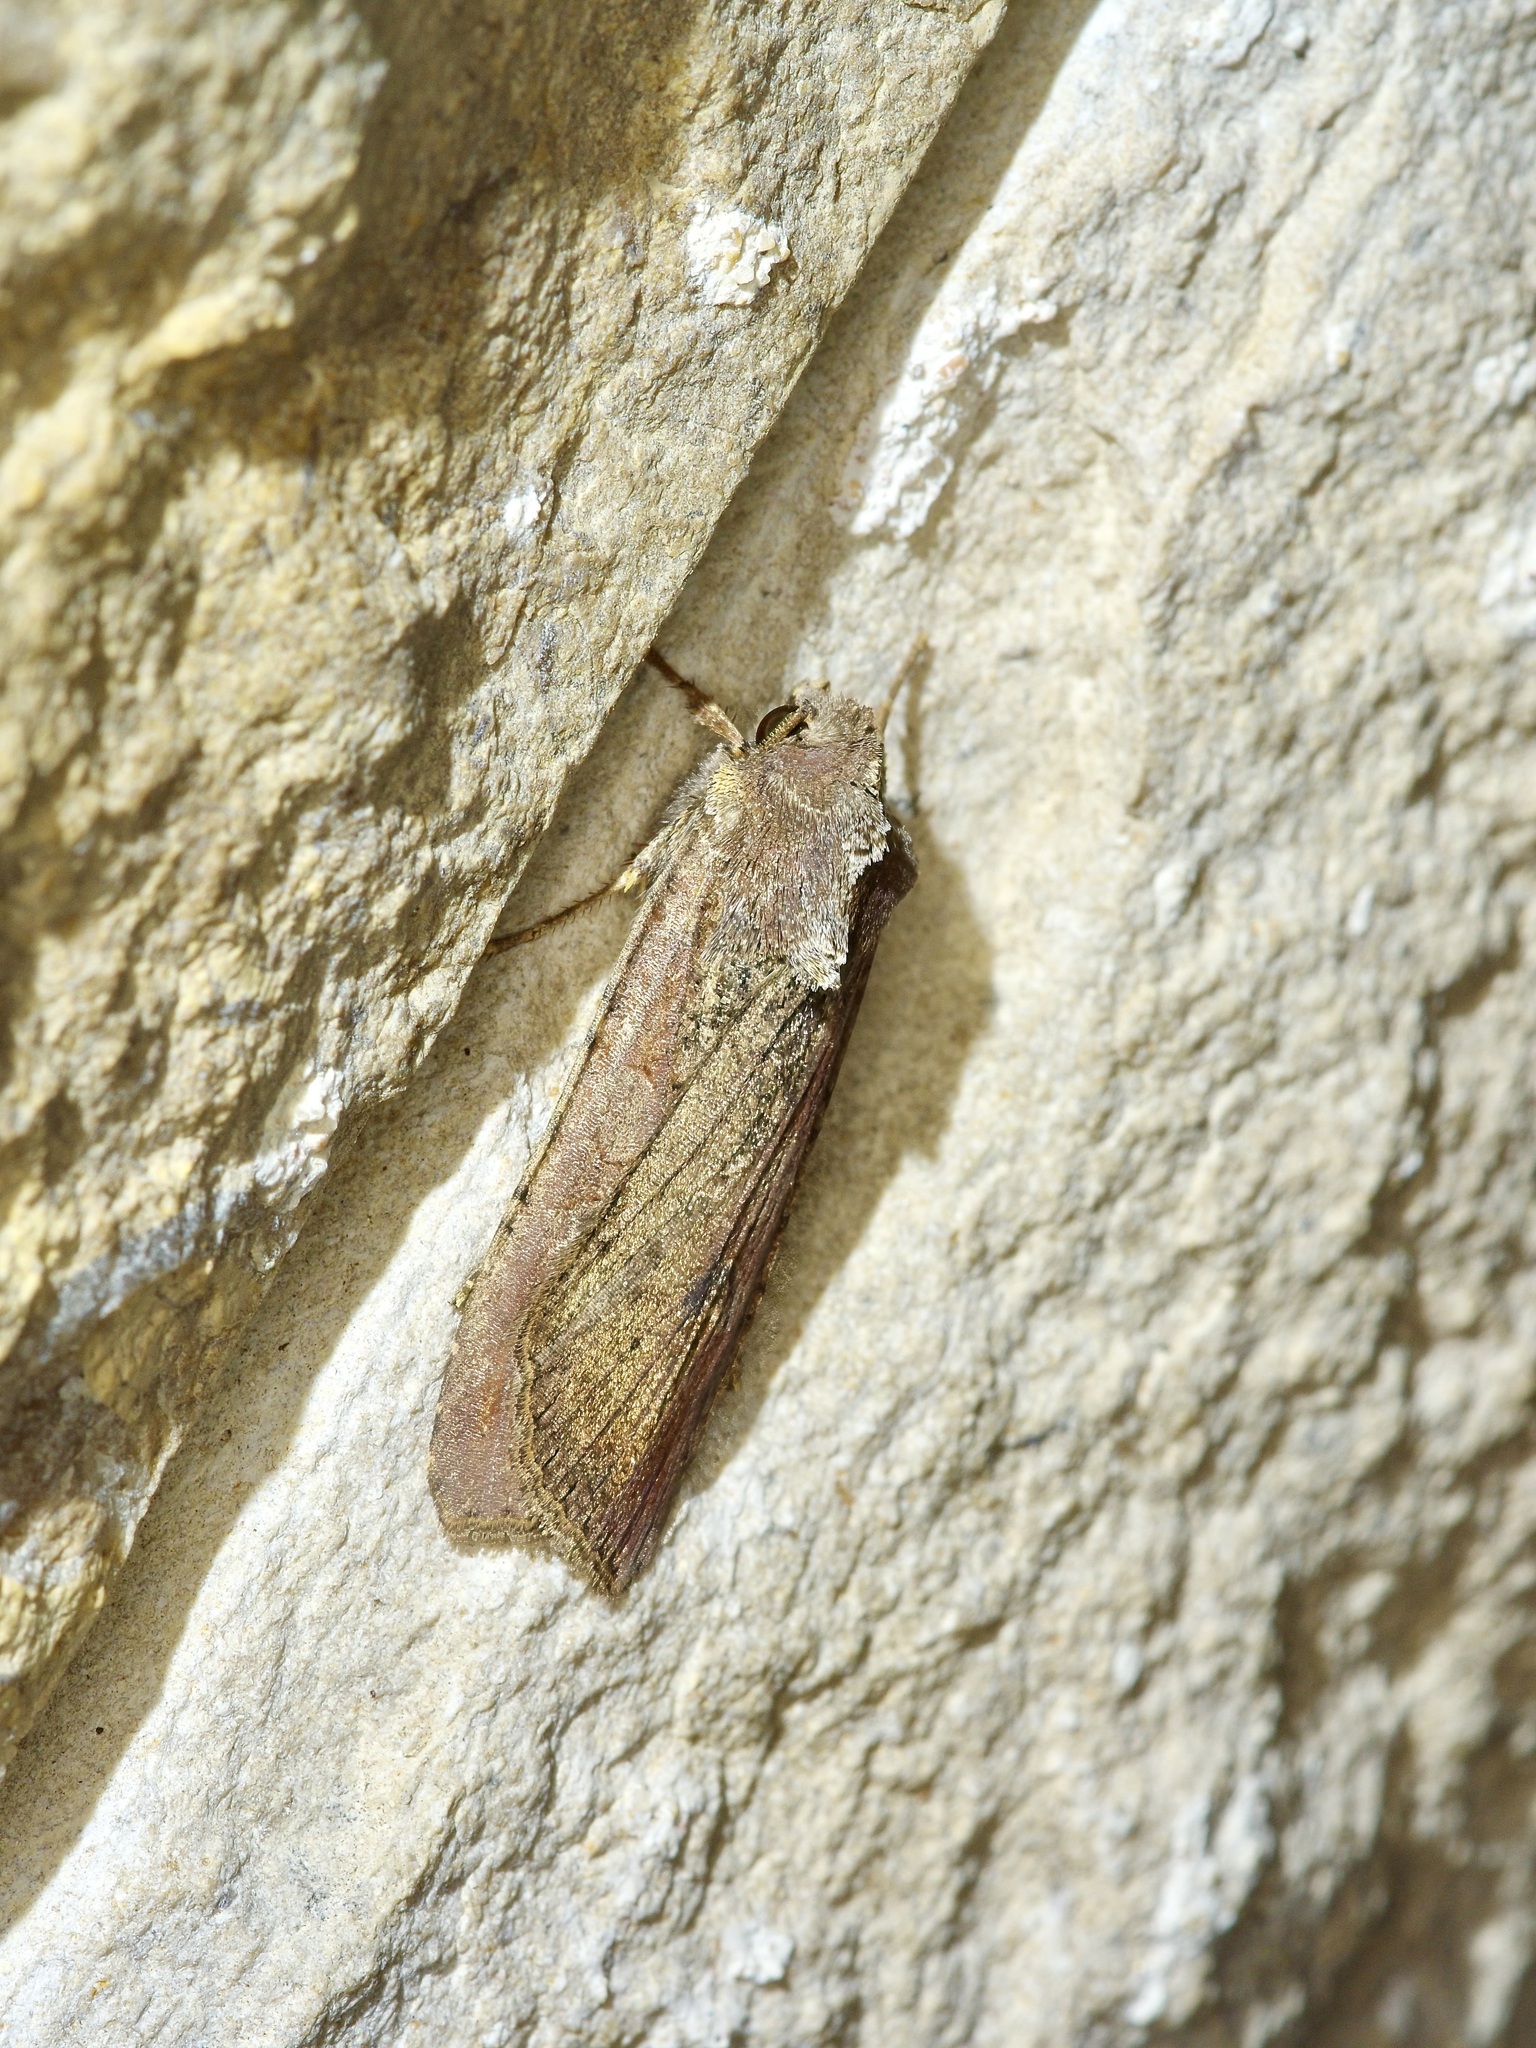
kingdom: Animalia
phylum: Arthropoda
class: Insecta
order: Lepidoptera
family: Noctuidae
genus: Peridroma
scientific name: Peridroma saucia
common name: Pearly underwing
